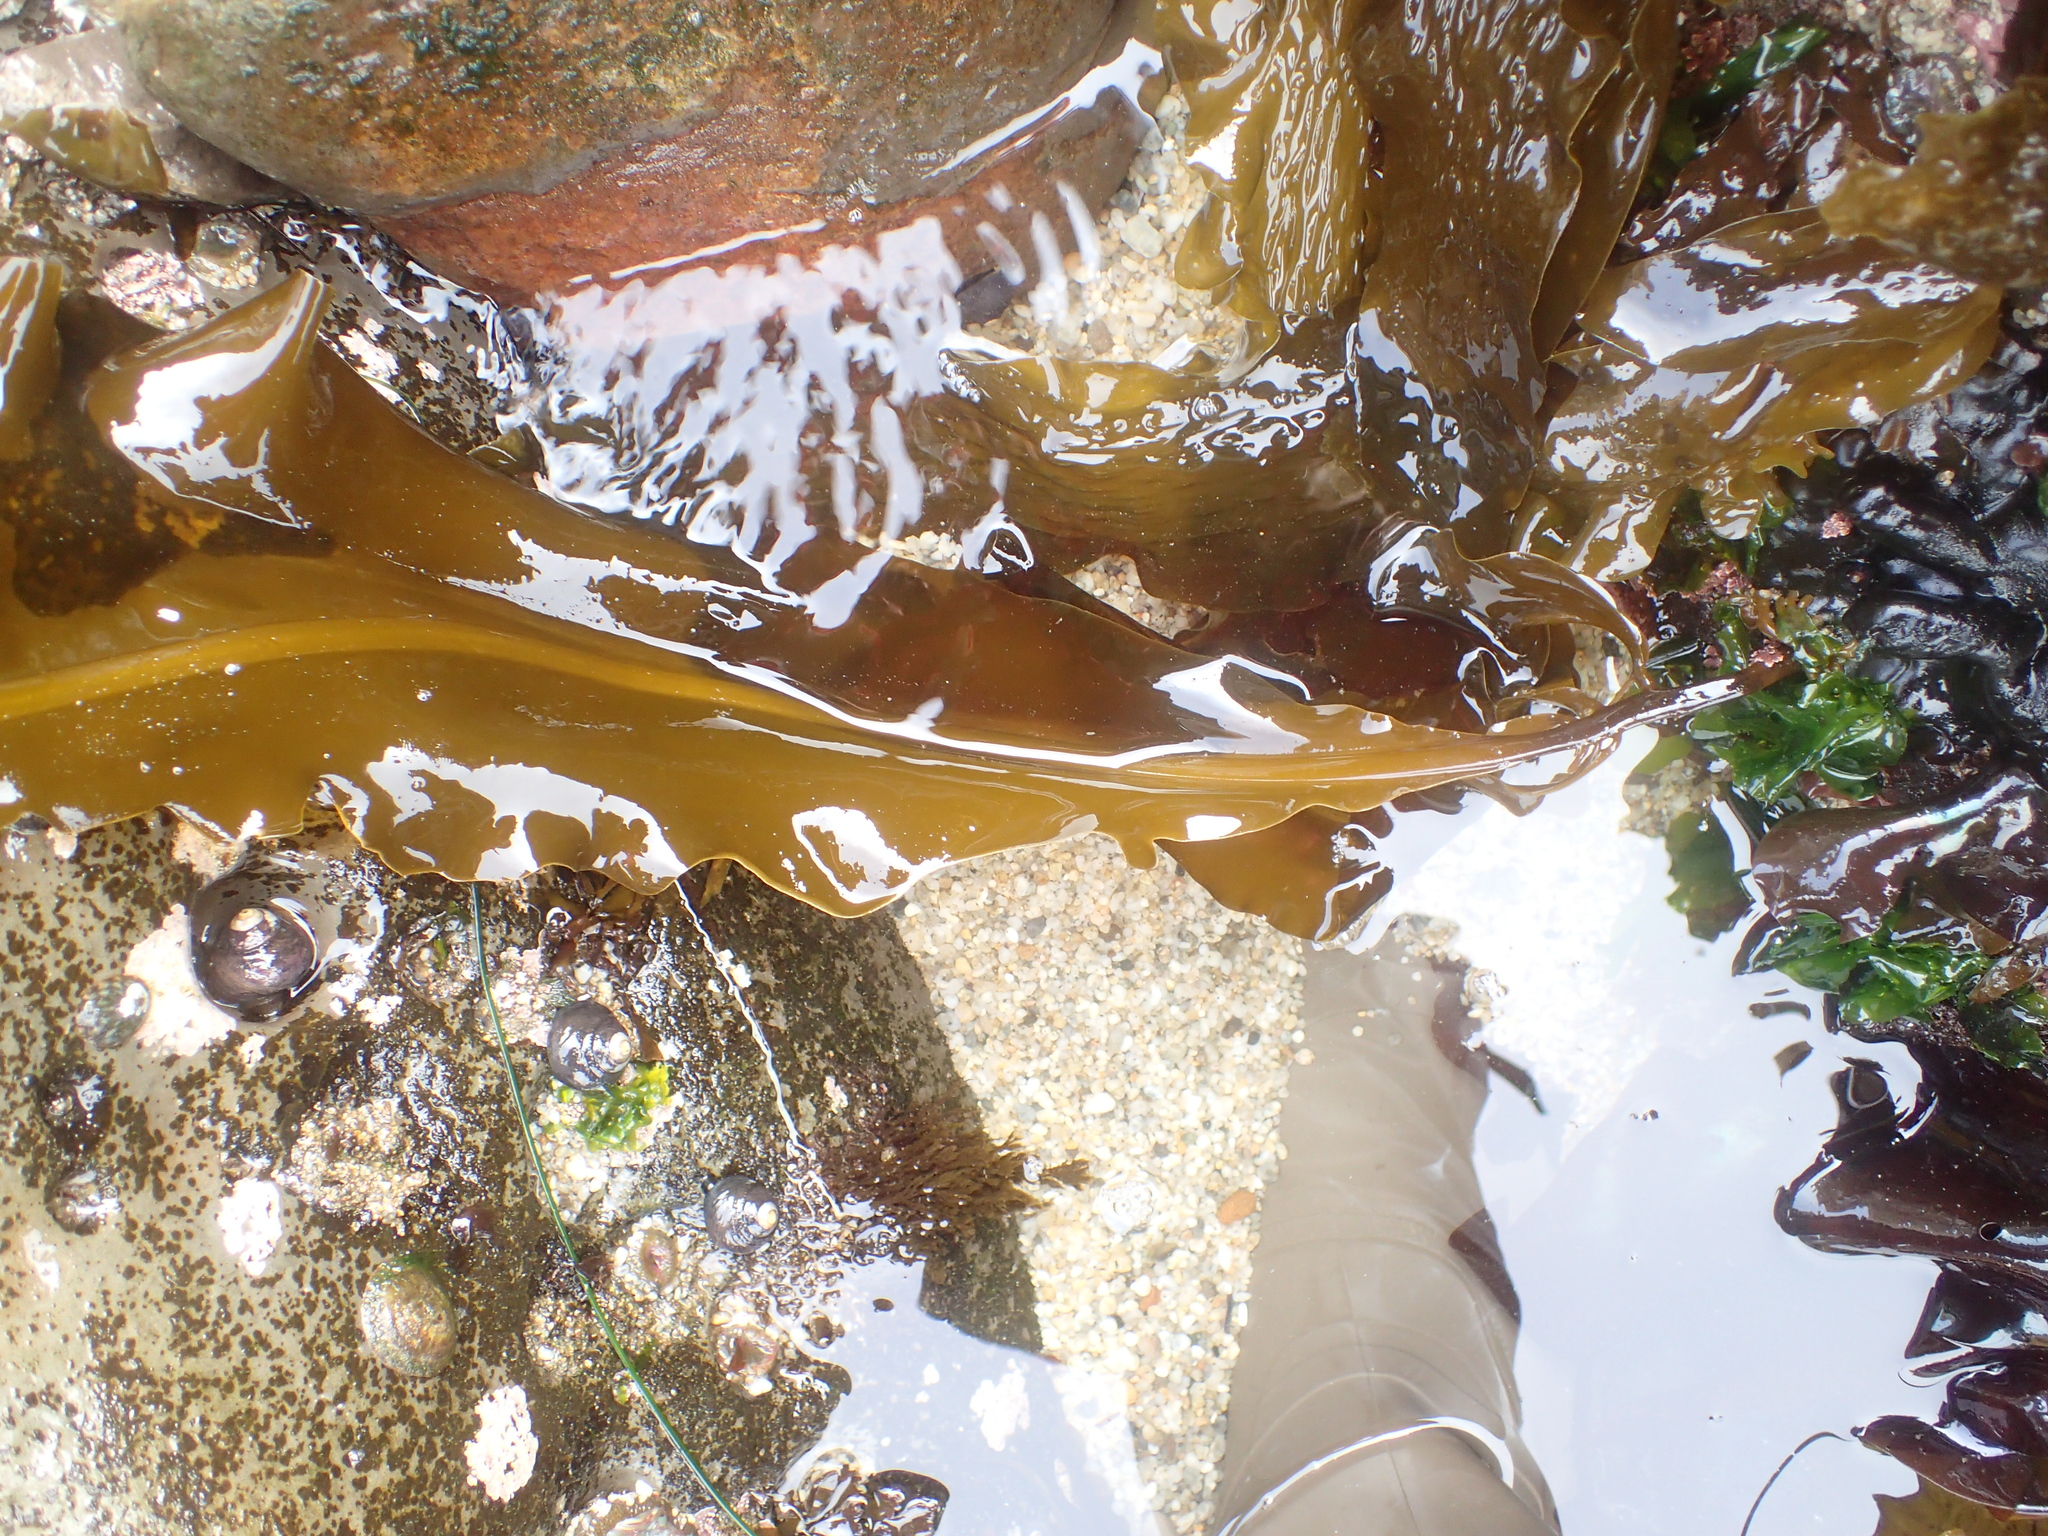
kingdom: Chromista
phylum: Ochrophyta
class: Phaeophyceae
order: Laminariales
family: Alariaceae
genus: Alaria
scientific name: Alaria marginata
